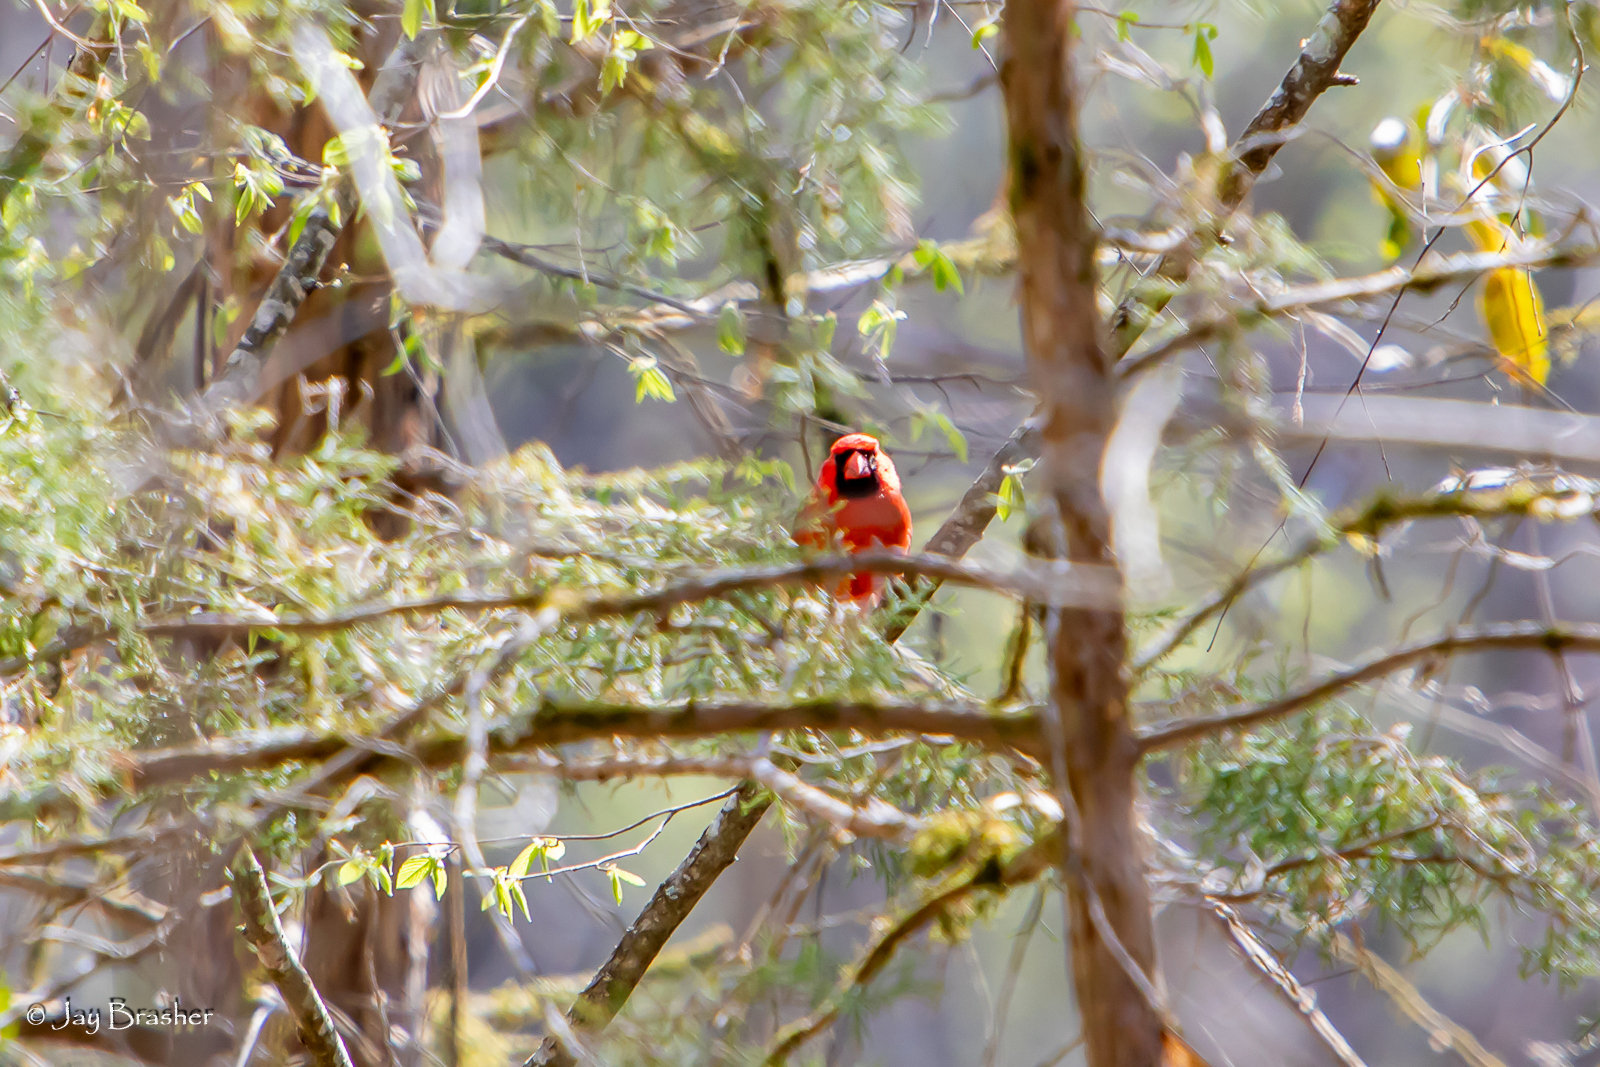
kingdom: Animalia
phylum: Chordata
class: Aves
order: Passeriformes
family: Cardinalidae
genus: Cardinalis
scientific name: Cardinalis cardinalis
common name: Northern cardinal
